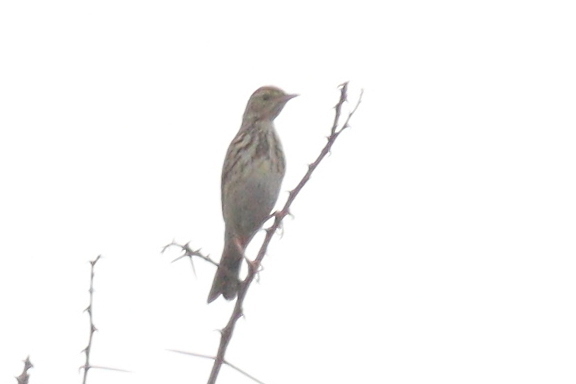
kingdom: Animalia
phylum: Chordata
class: Aves
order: Passeriformes
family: Motacillidae
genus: Anthus
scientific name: Anthus trivialis
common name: Tree pipit
